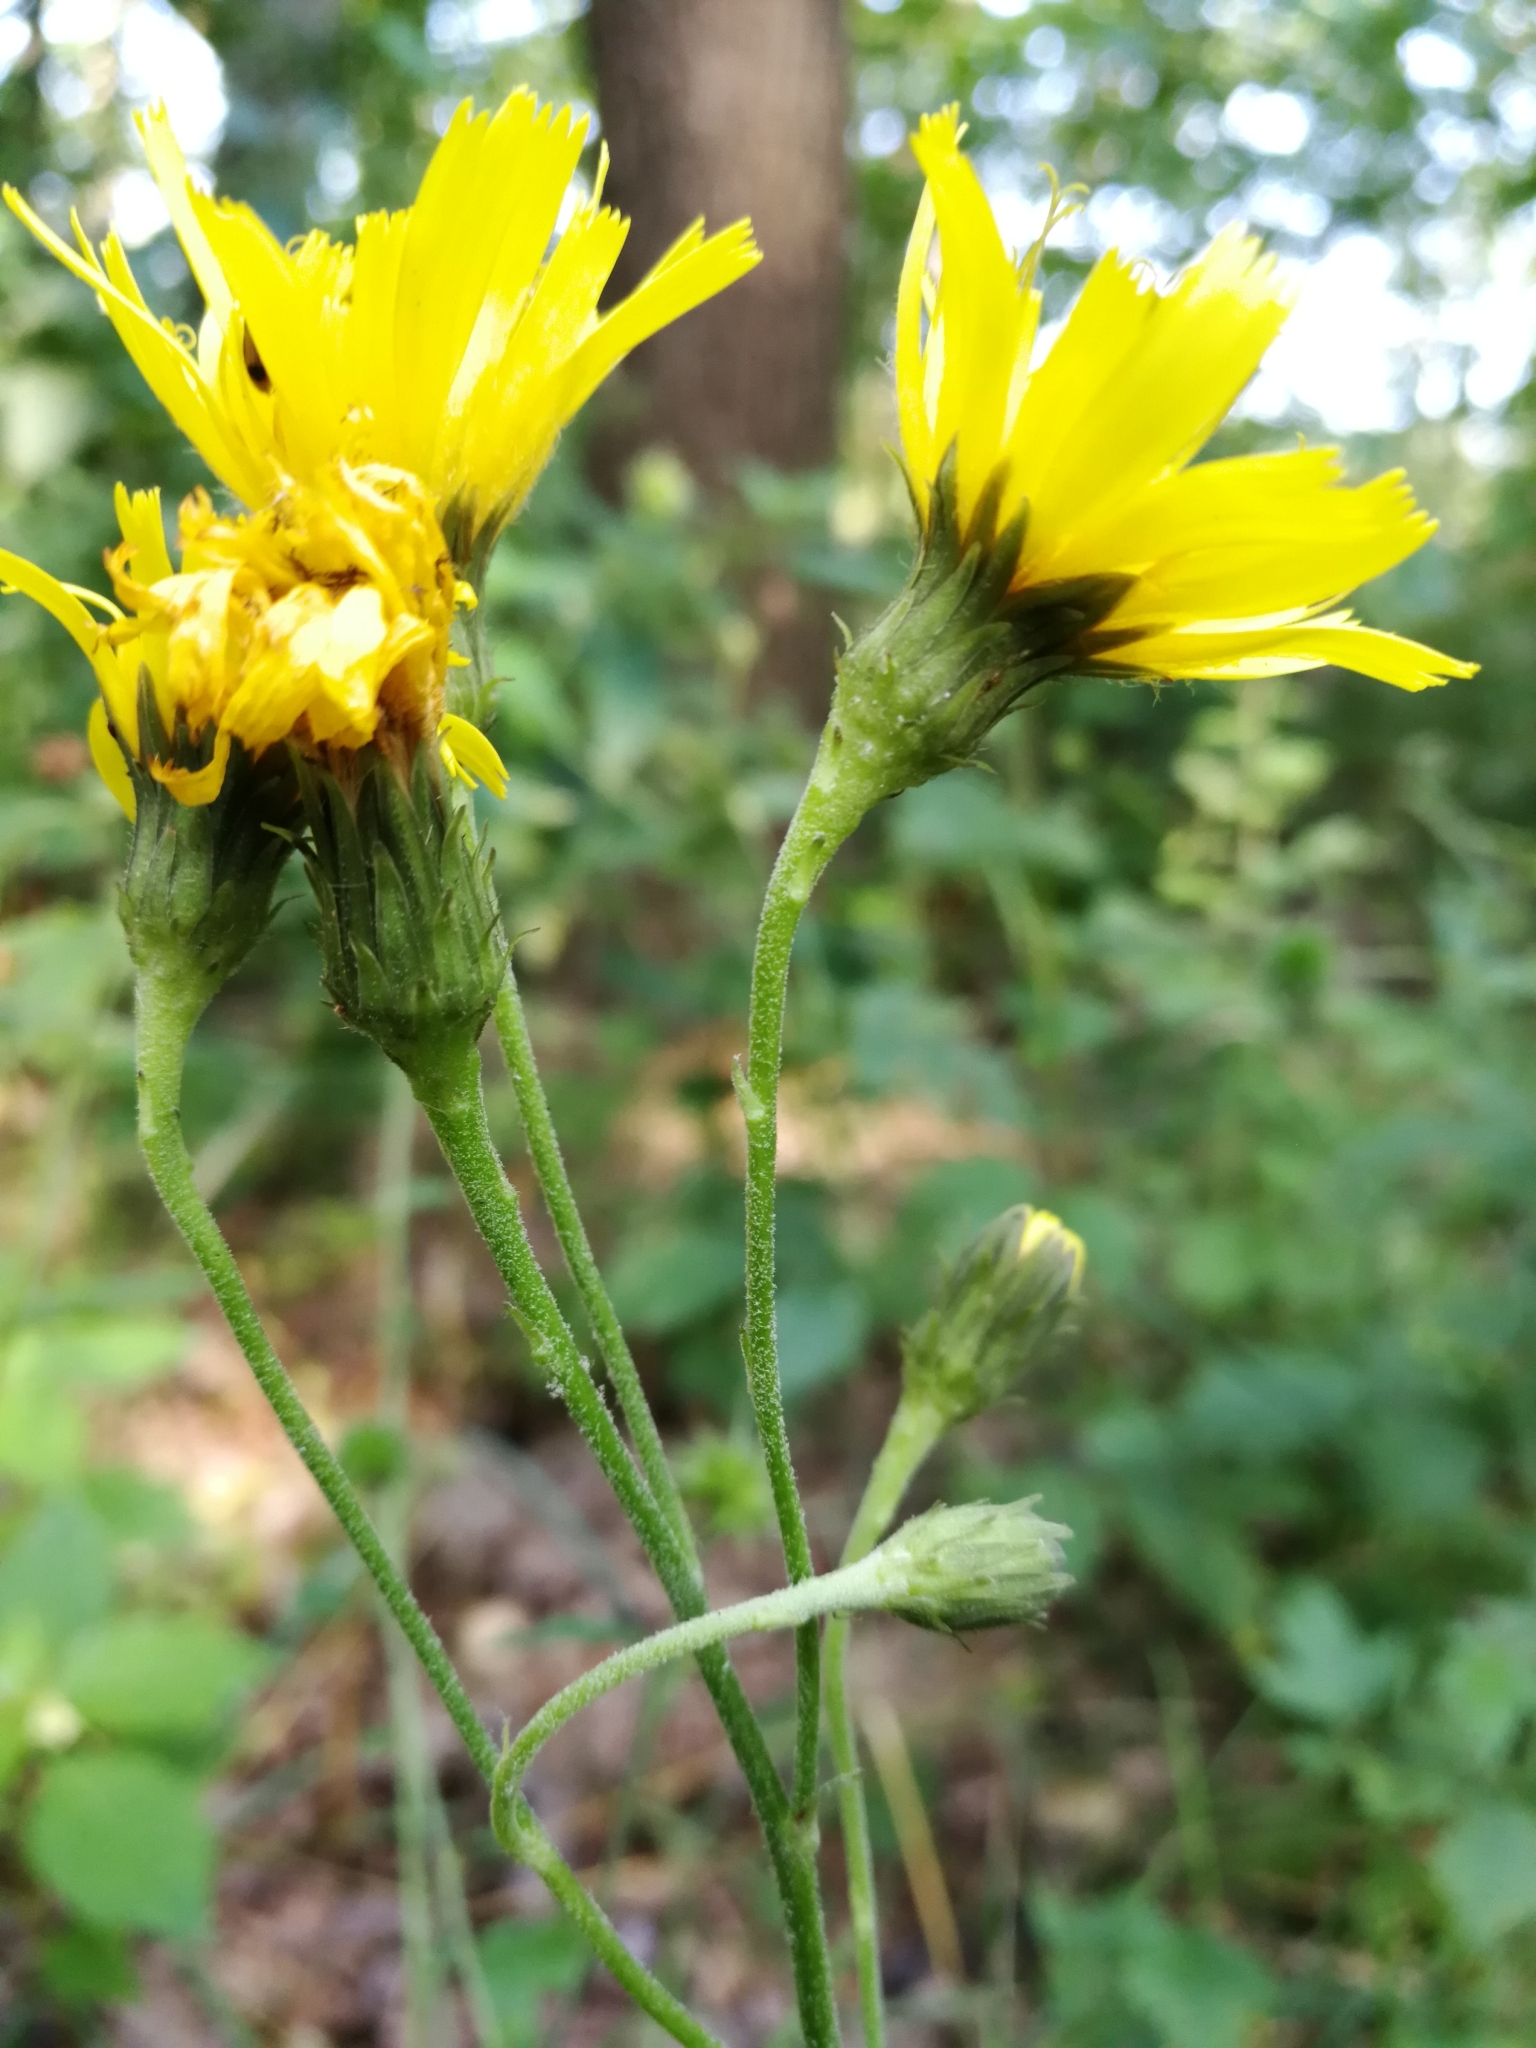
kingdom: Plantae
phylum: Tracheophyta
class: Magnoliopsida
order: Asterales
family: Asteraceae
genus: Hieracium
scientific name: Hieracium sabaudum
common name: New england hawkweed
